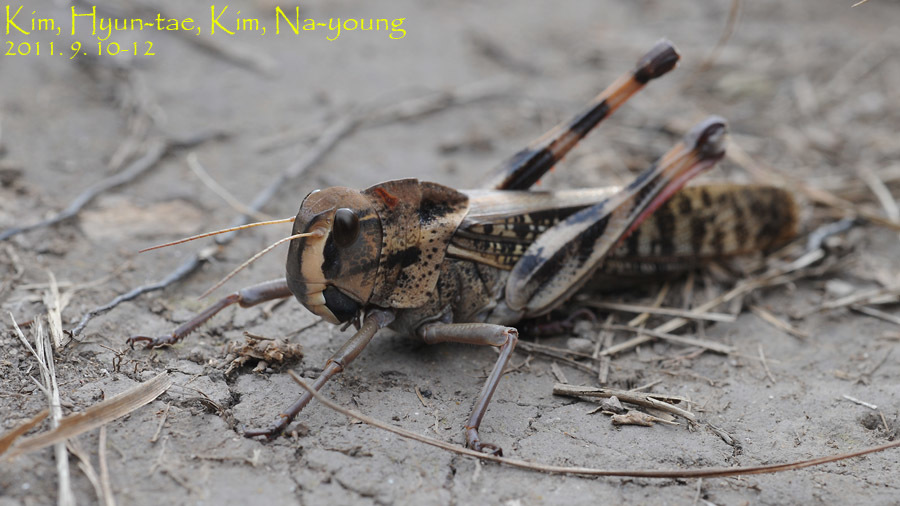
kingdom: Animalia
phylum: Arthropoda
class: Insecta
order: Orthoptera
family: Acrididae
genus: Locusta
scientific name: Locusta migratoria
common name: Migratory locust
